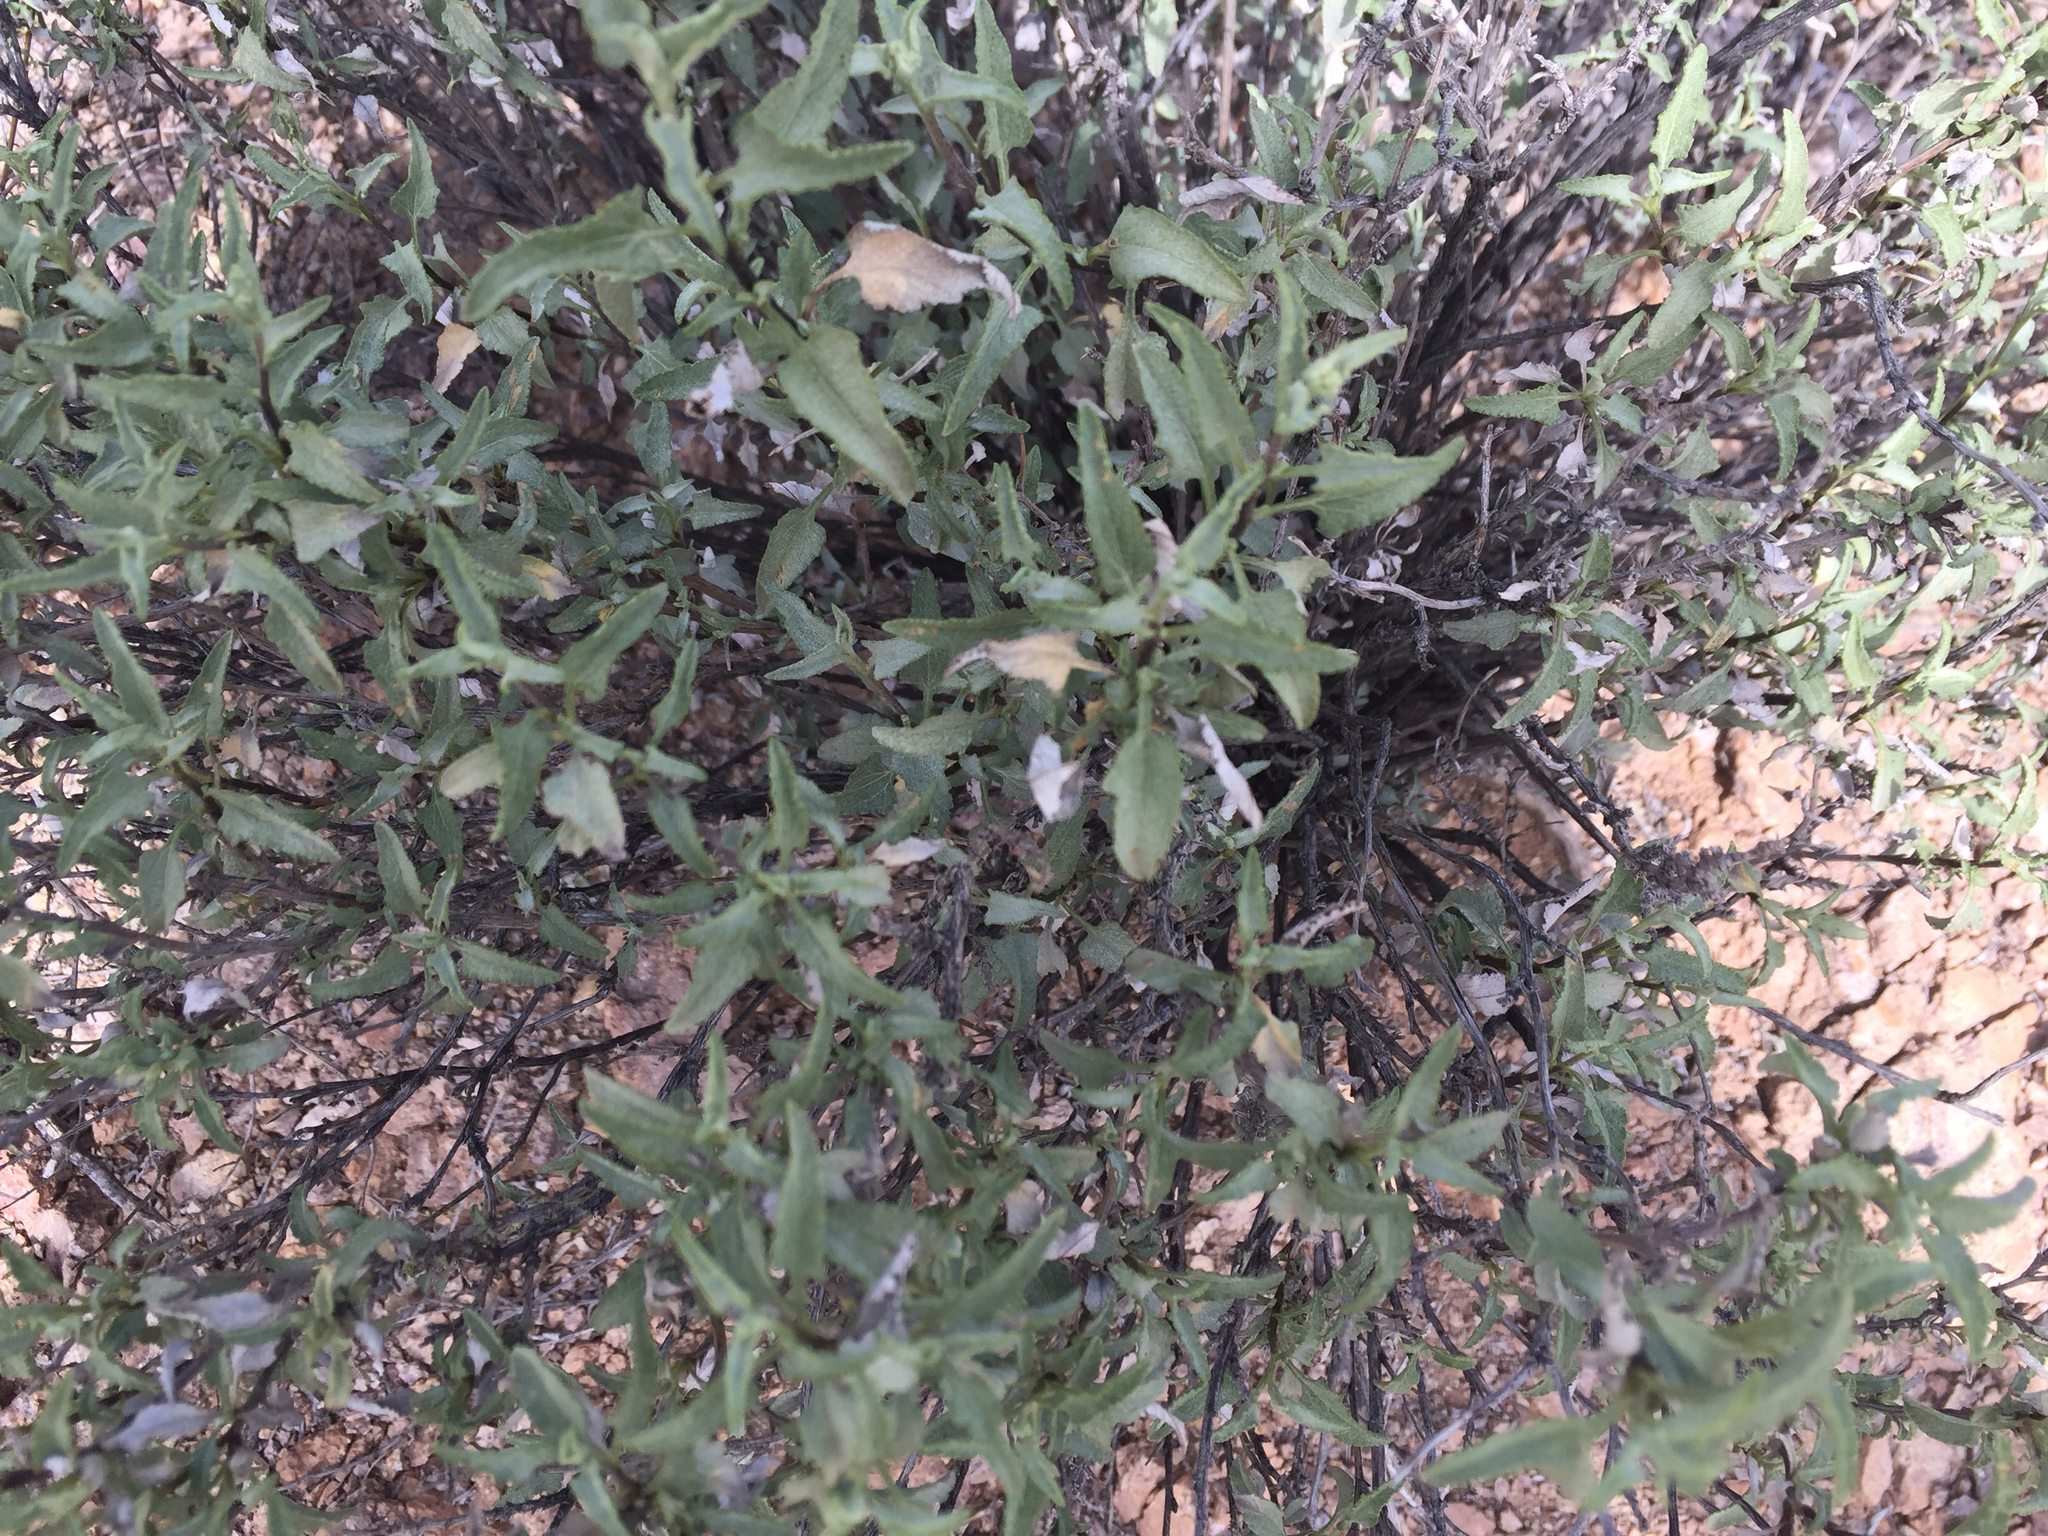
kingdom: Plantae
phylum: Tracheophyta
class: Magnoliopsida
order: Asterales
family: Asteraceae
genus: Ambrosia
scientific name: Ambrosia deltoidea
